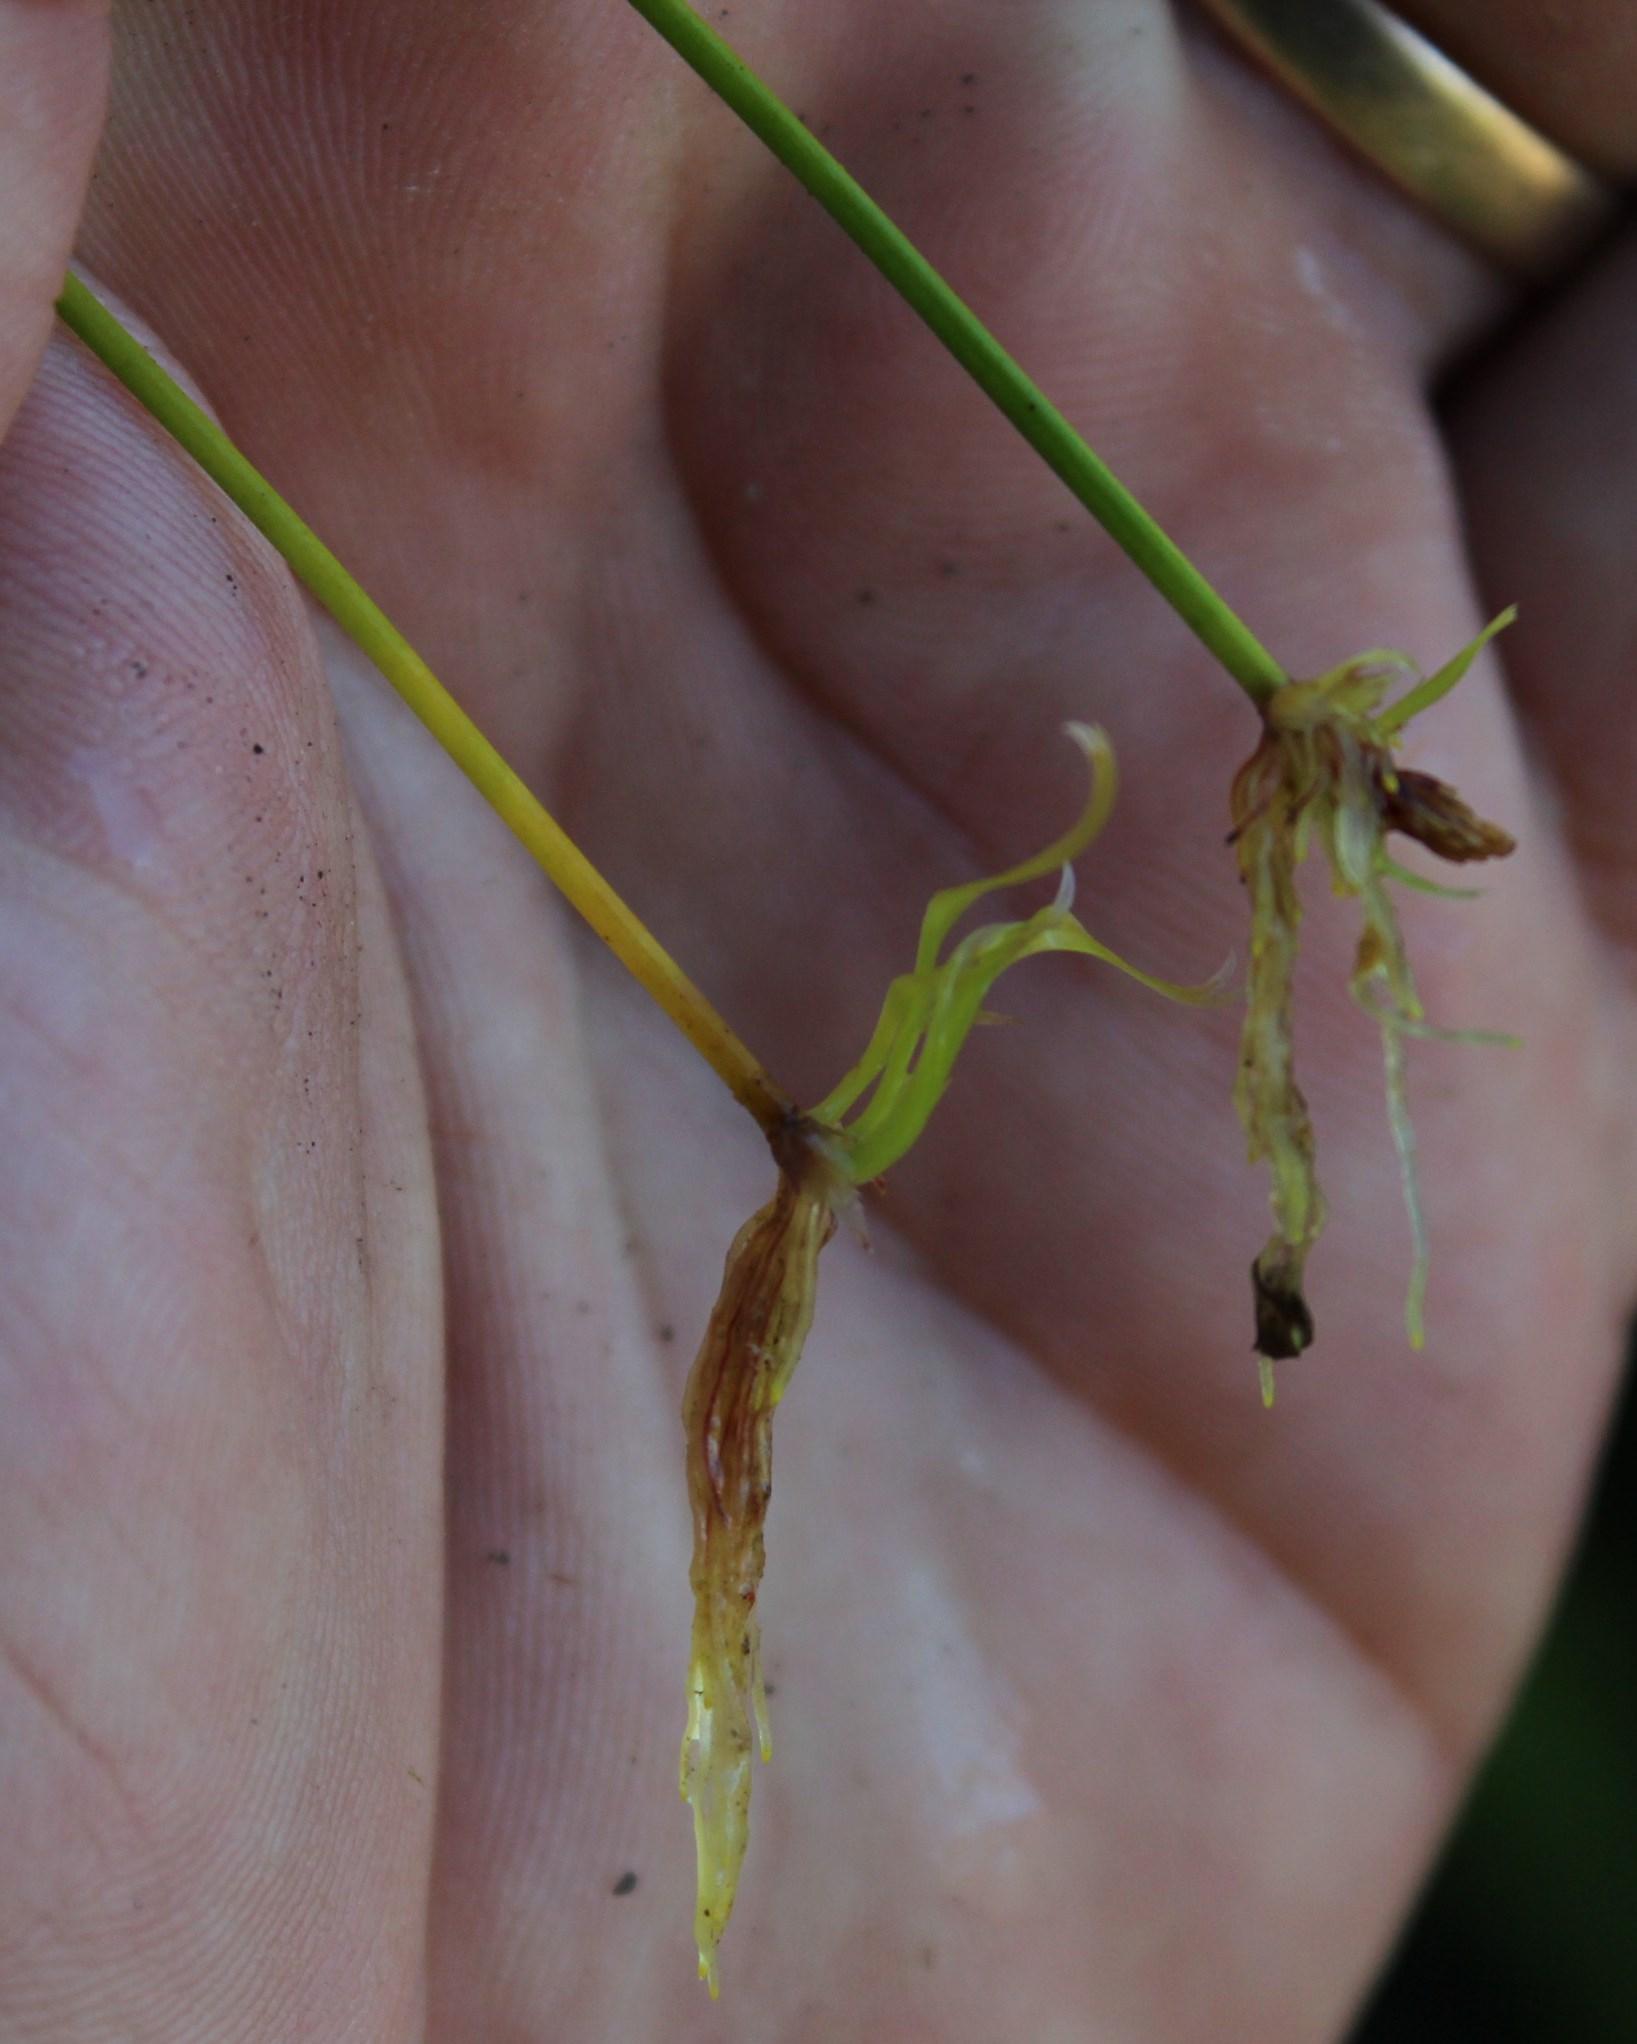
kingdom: Plantae
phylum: Tracheophyta
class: Magnoliopsida
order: Lamiales
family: Lentibulariaceae
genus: Utricularia
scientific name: Utricularia bisquamata
